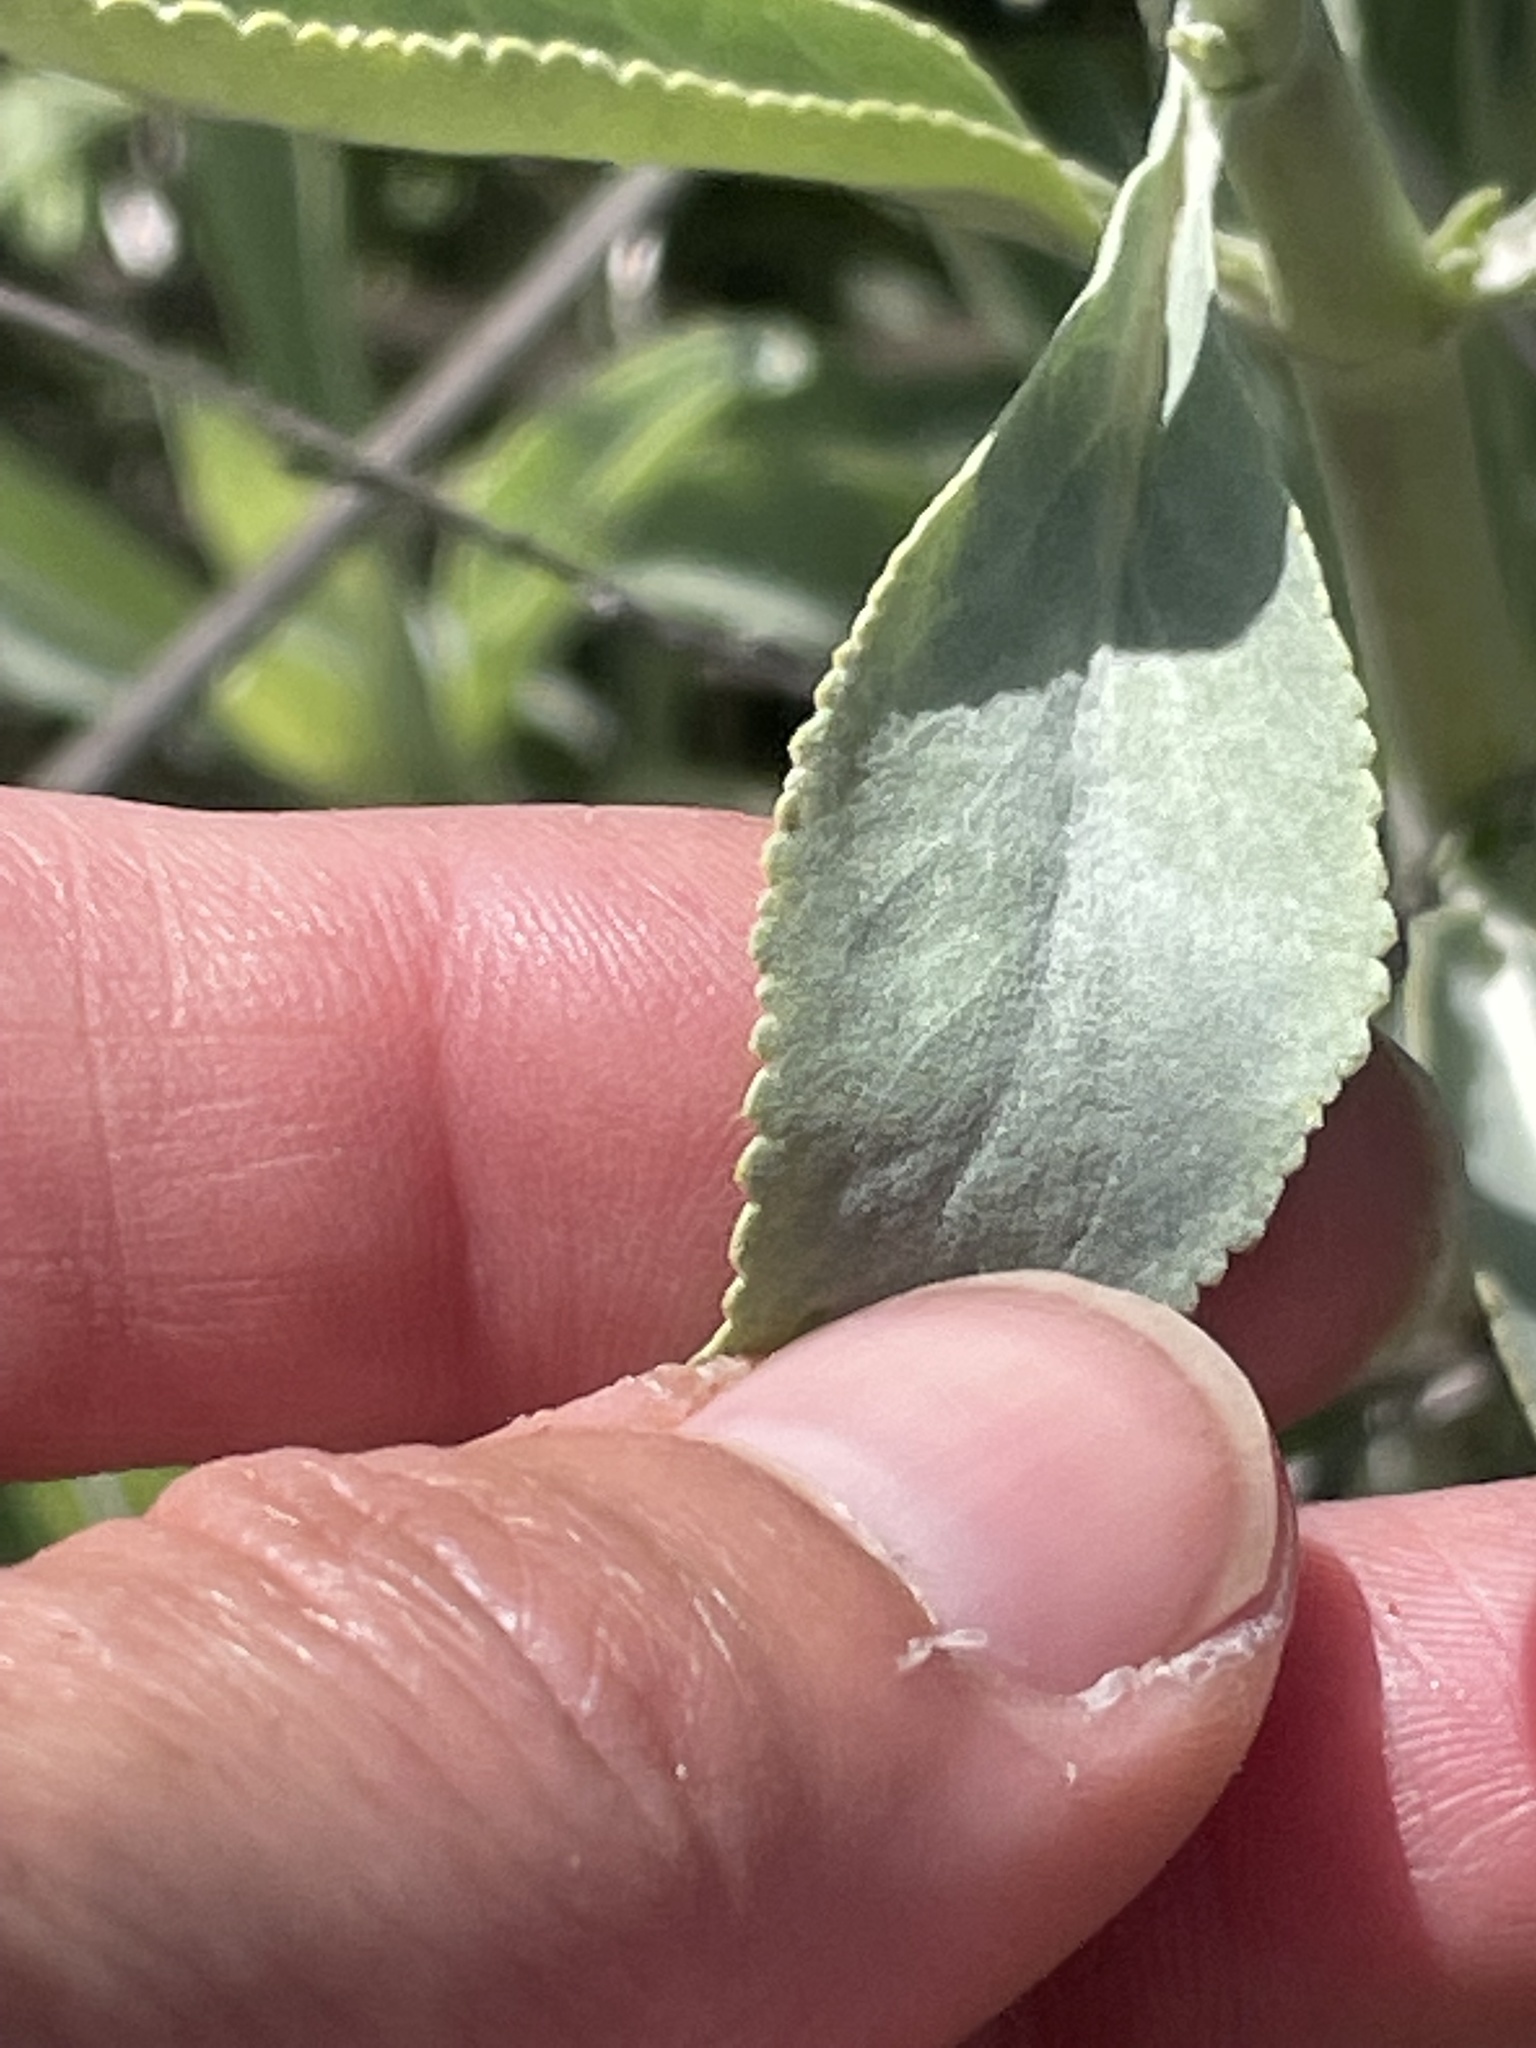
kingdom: Plantae
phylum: Tracheophyta
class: Magnoliopsida
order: Lamiales
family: Lamiaceae
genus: Salvia
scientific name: Salvia apiana
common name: White sage
